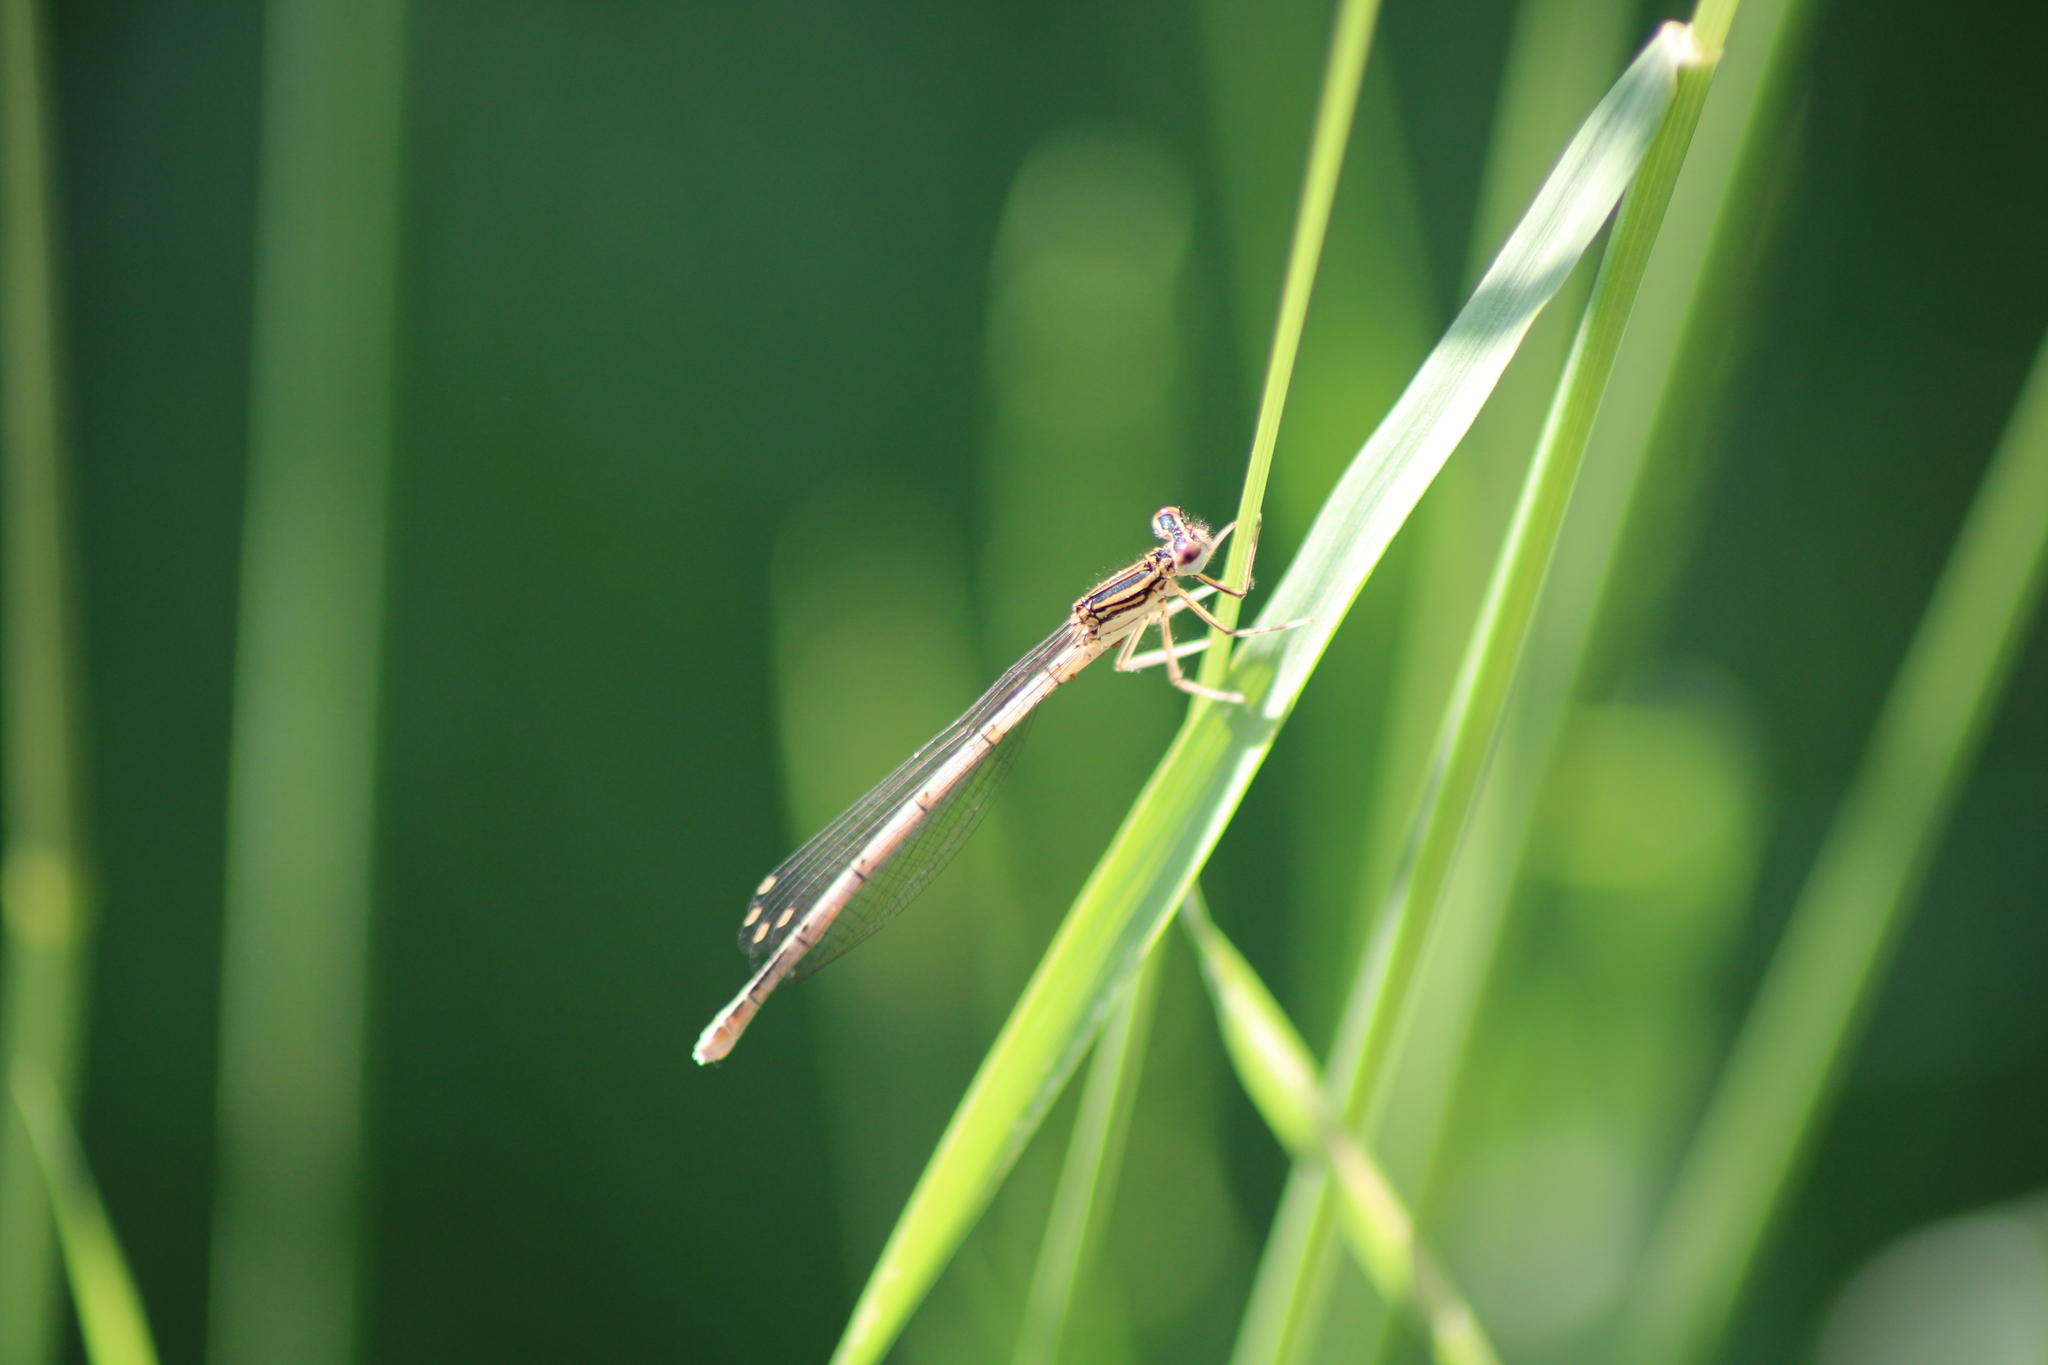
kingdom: Animalia
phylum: Arthropoda
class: Insecta
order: Odonata
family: Platycnemididae
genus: Platycnemis
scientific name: Platycnemis pennipes
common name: White-legged damselfly
